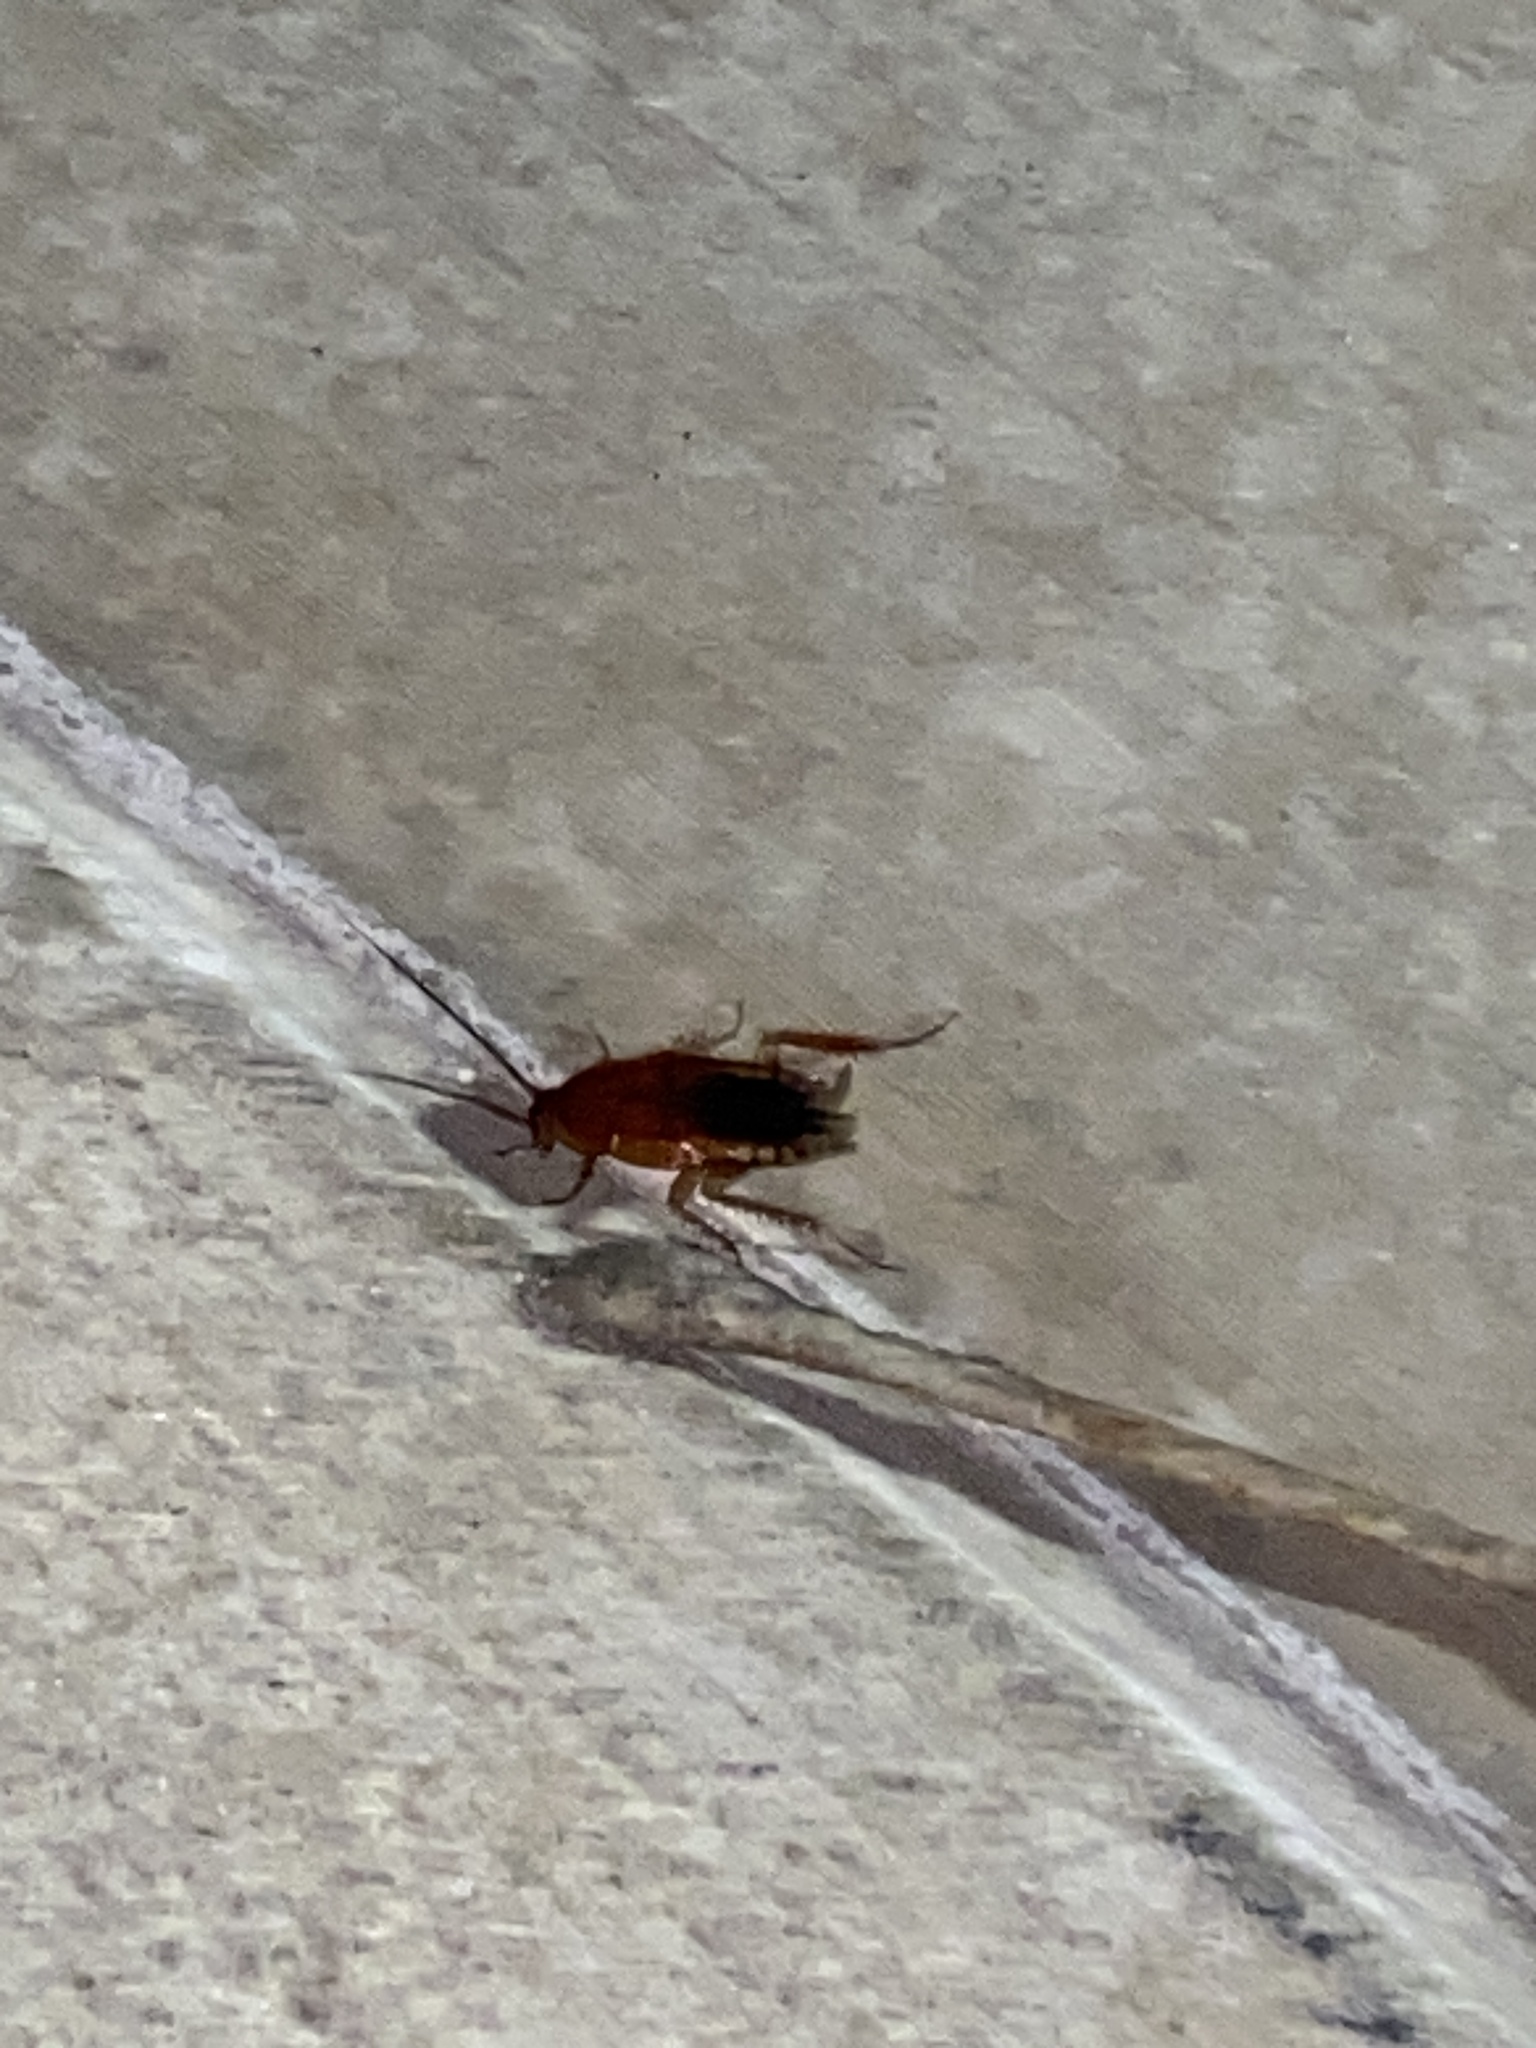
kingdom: Animalia
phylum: Arthropoda
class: Insecta
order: Blattodea
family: Blattidae
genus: Periplaneta
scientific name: Periplaneta lateralis
